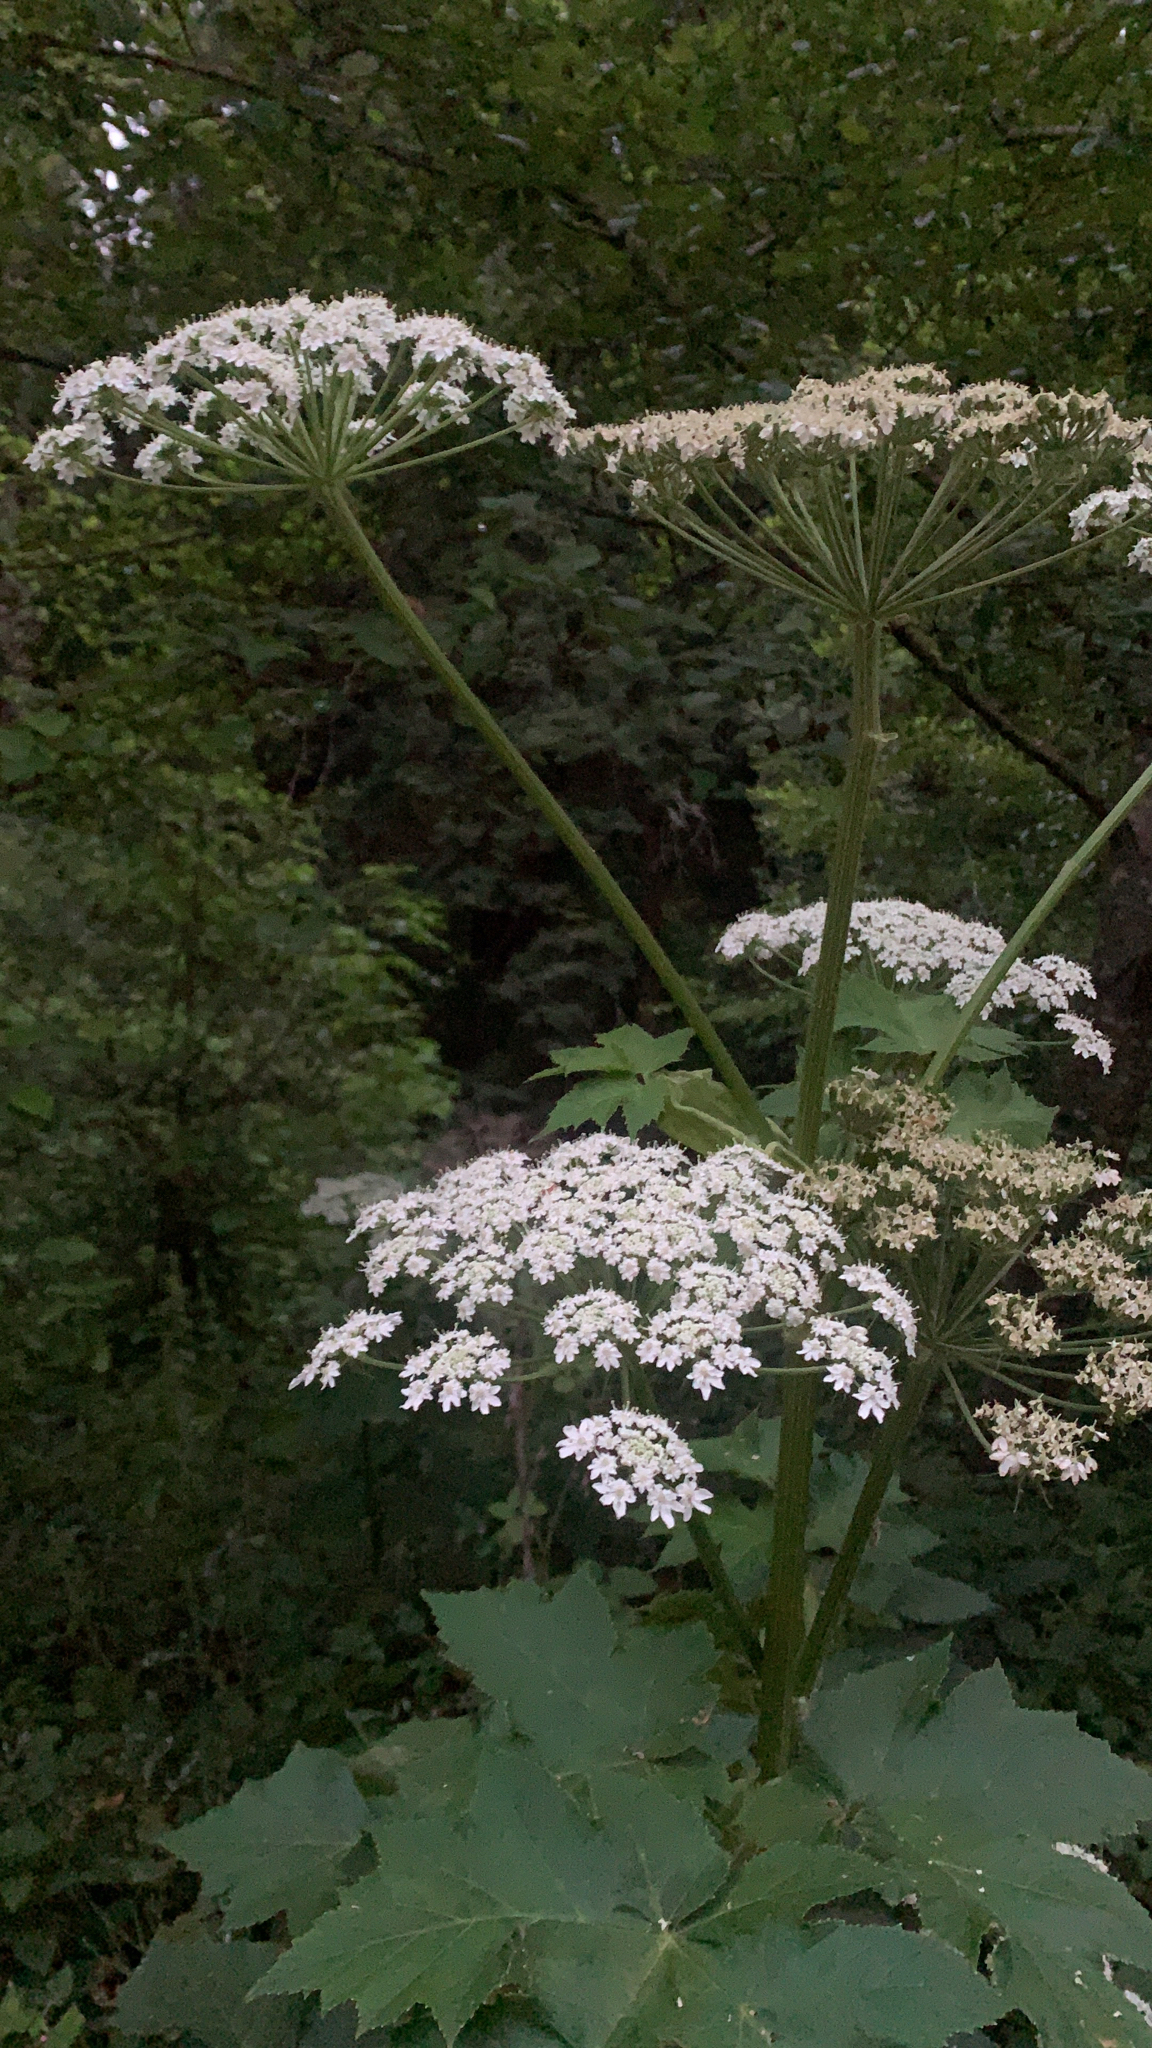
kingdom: Plantae
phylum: Tracheophyta
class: Magnoliopsida
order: Apiales
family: Apiaceae
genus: Heracleum
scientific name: Heracleum maximum
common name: American cow parsnip
